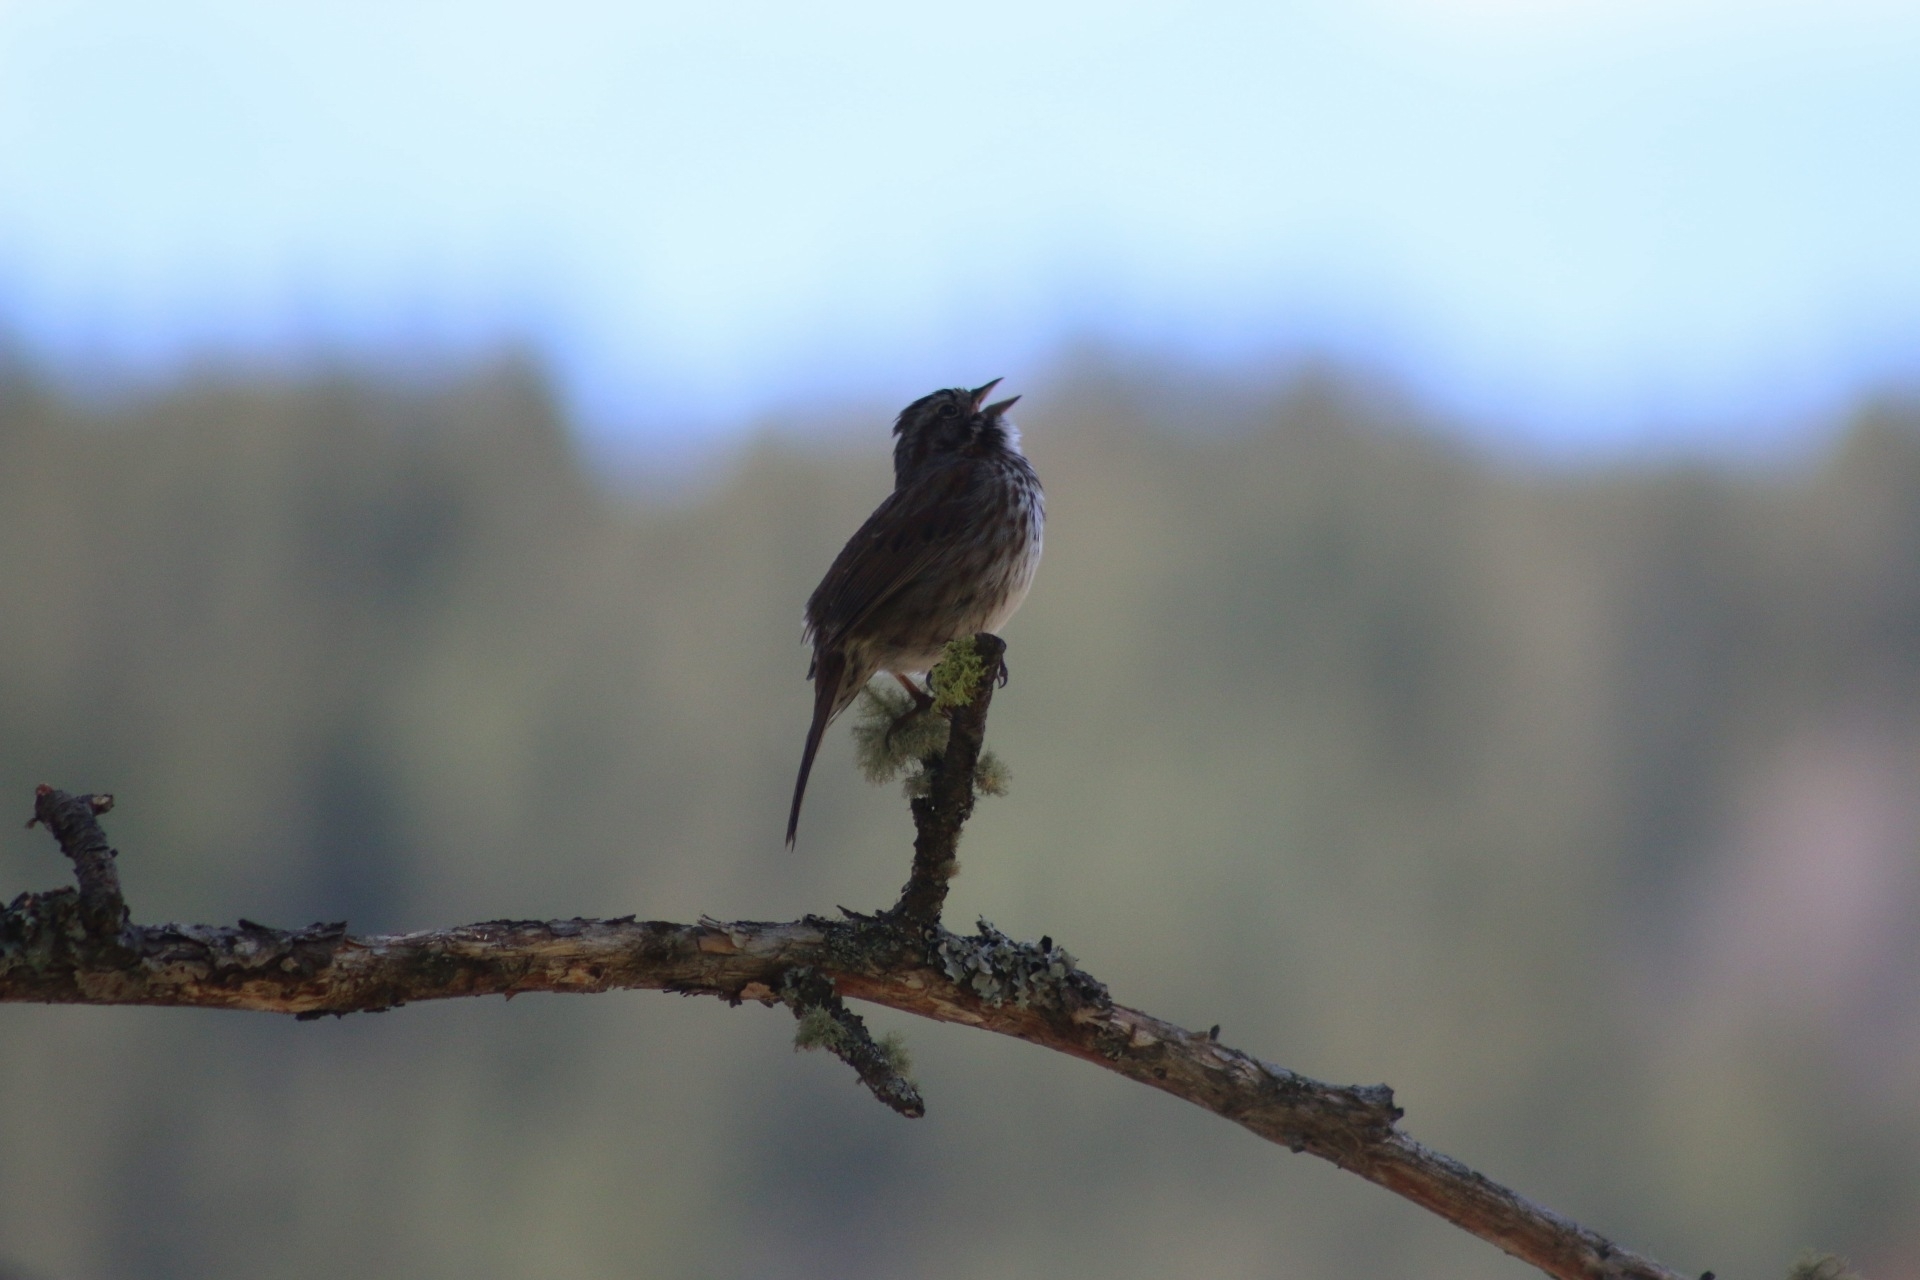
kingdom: Animalia
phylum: Chordata
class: Aves
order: Passeriformes
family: Passerellidae
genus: Melospiza
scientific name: Melospiza melodia
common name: Song sparrow
